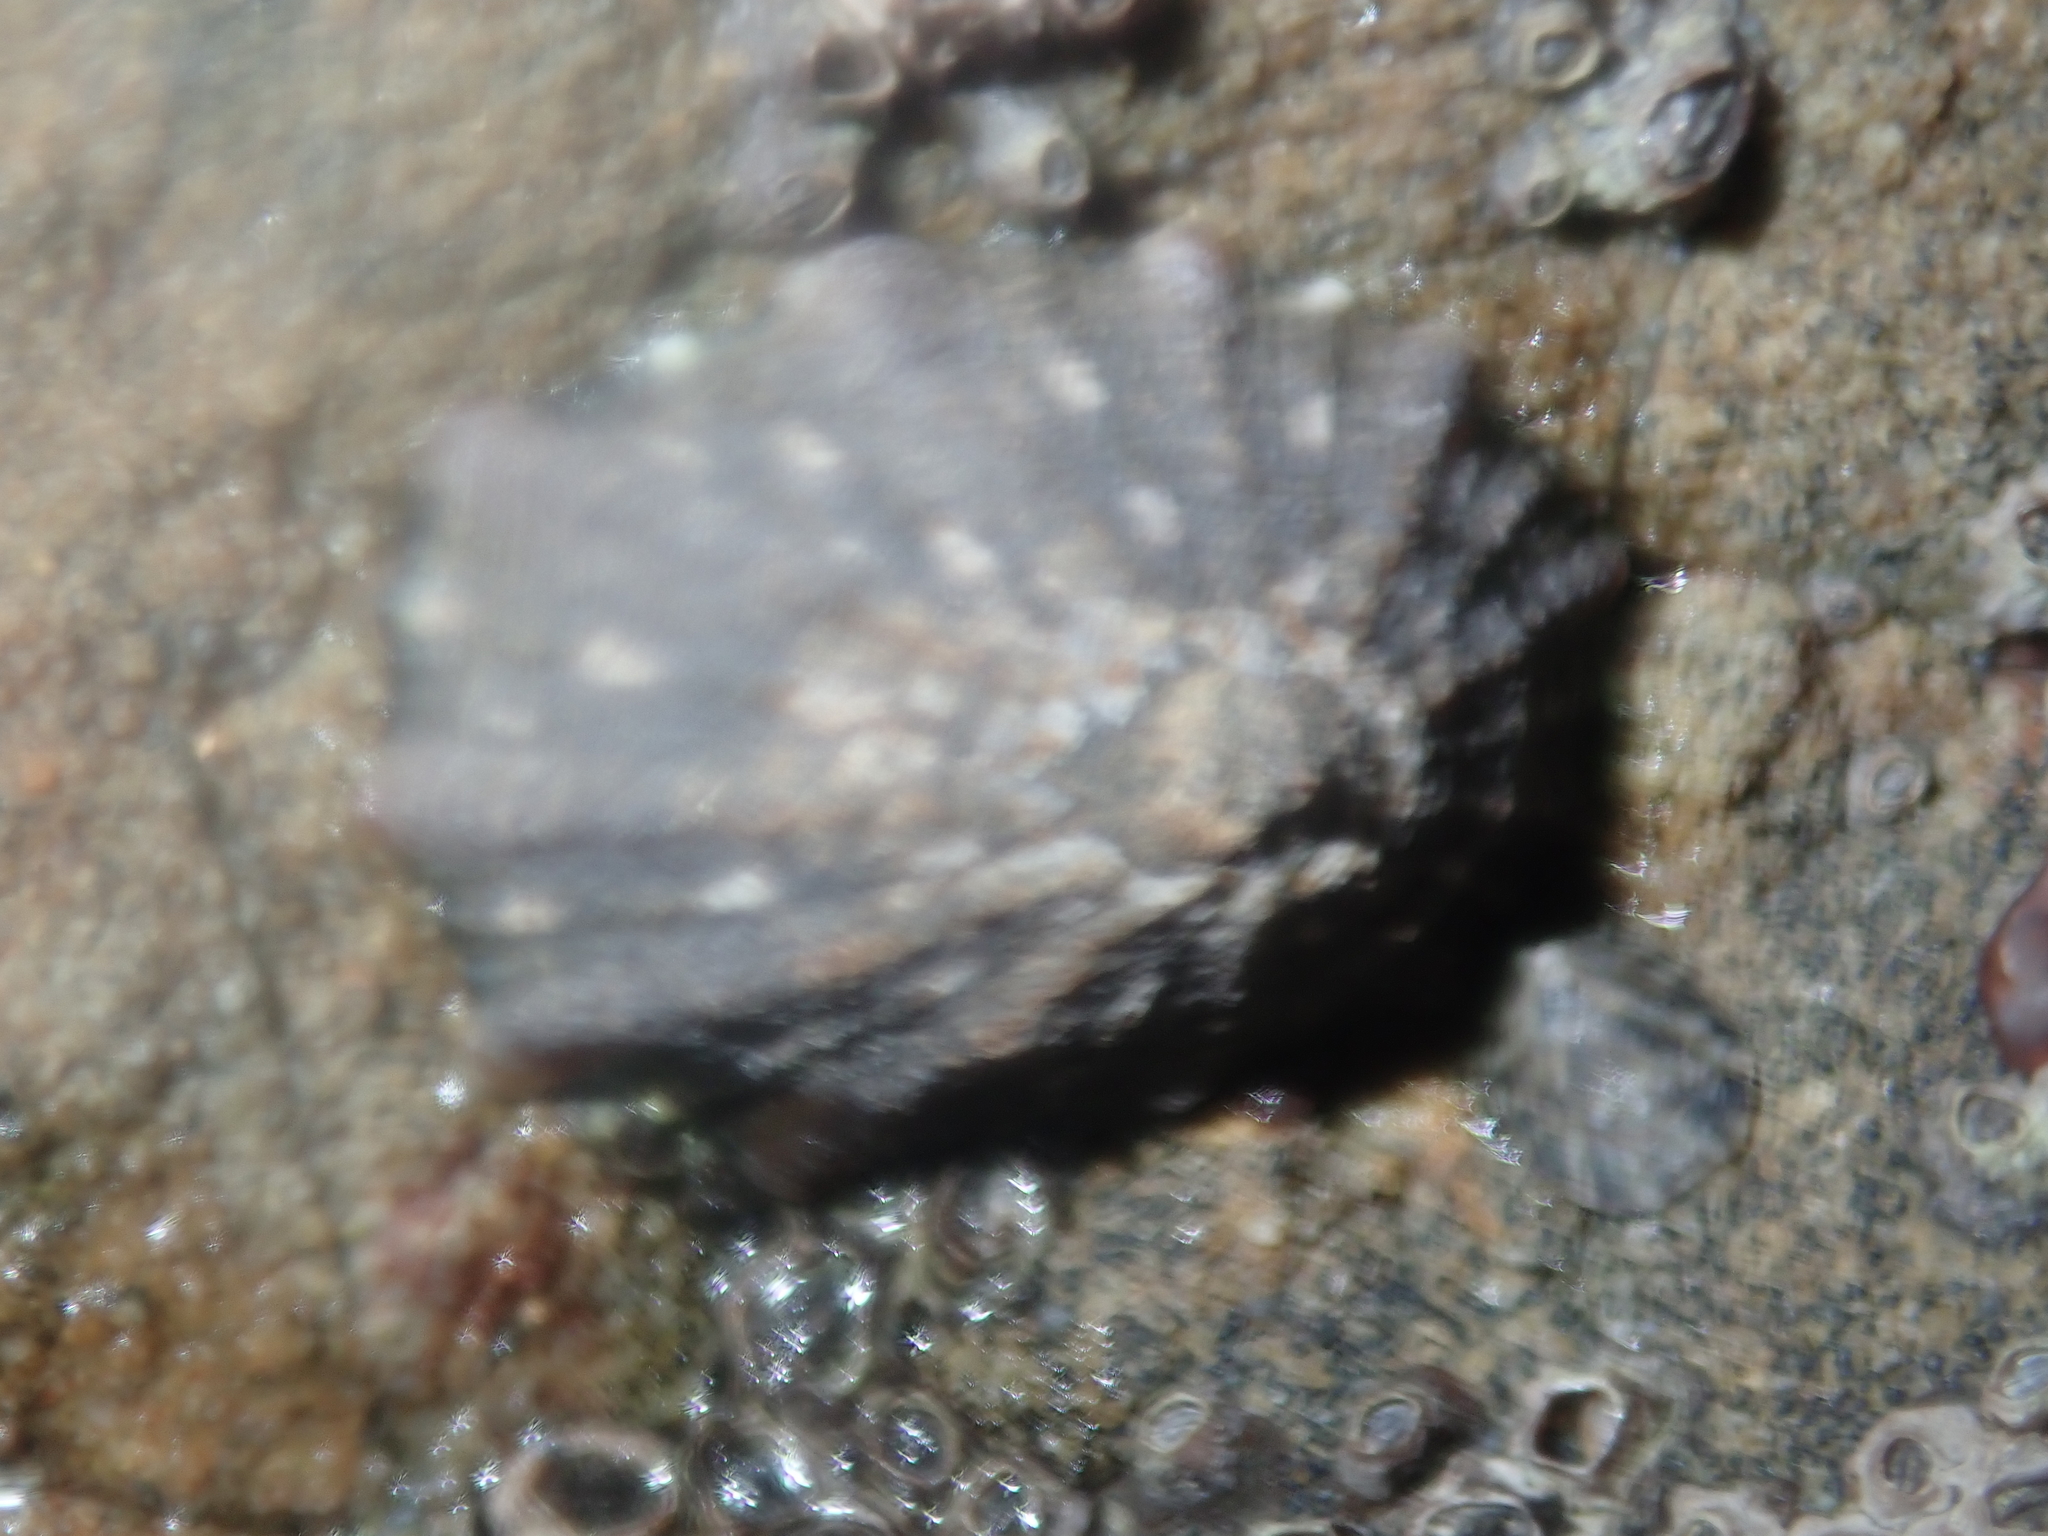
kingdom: Animalia
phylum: Mollusca
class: Gastropoda
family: Nacellidae
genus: Cellana
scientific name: Cellana ornata
